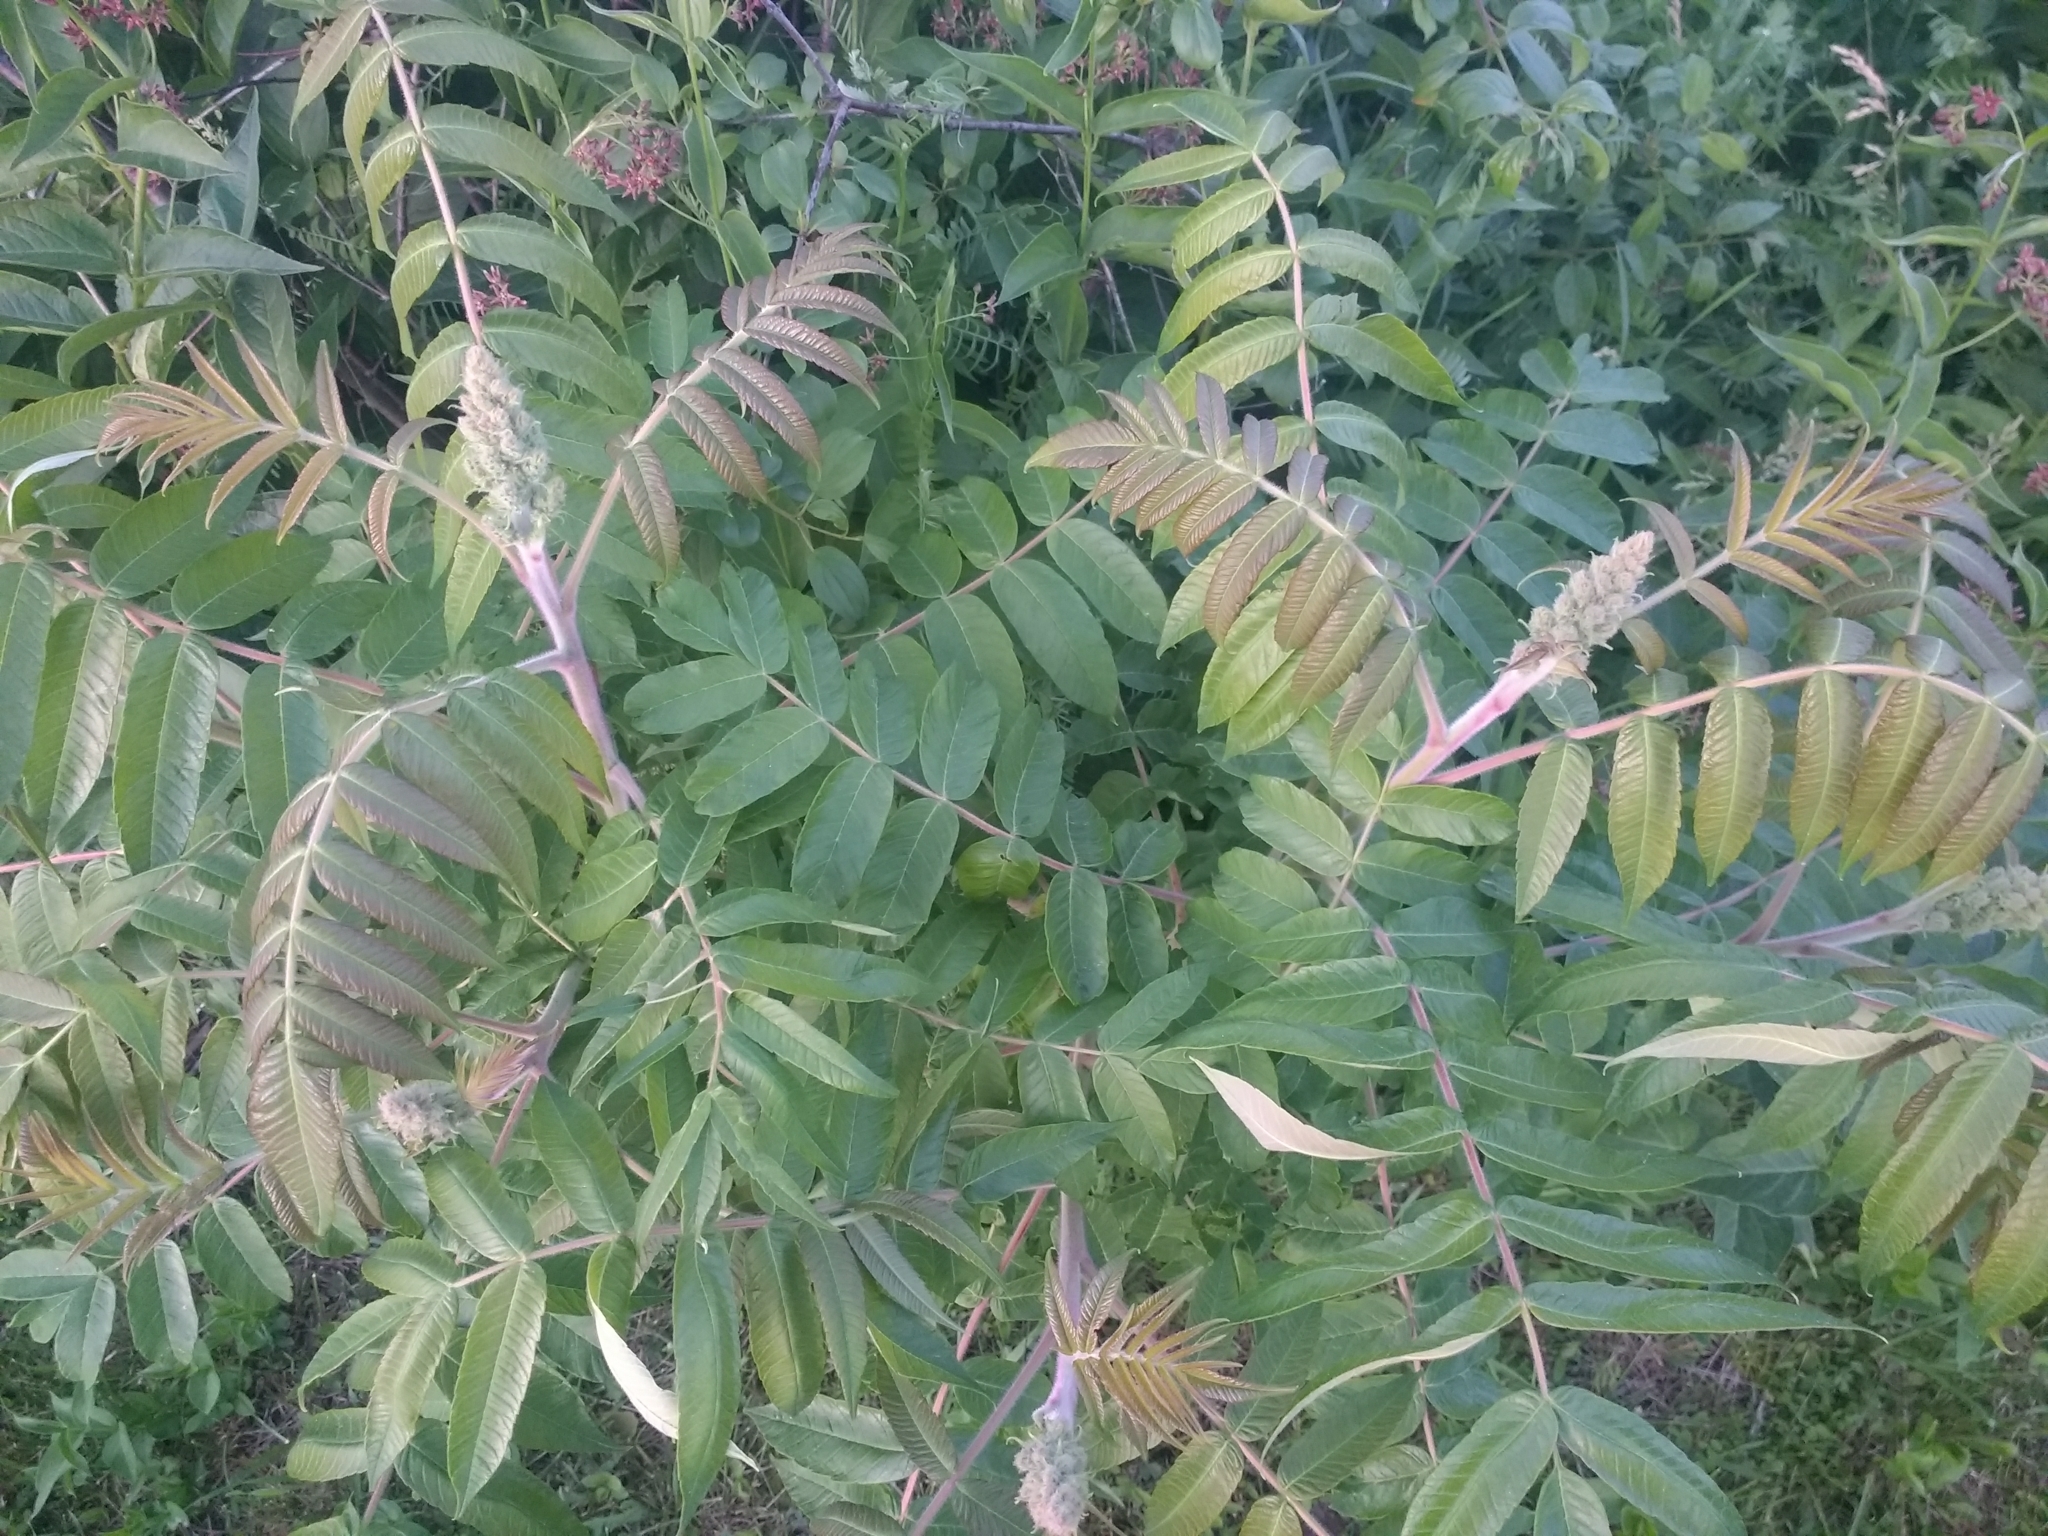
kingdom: Plantae
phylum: Tracheophyta
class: Magnoliopsida
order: Sapindales
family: Anacardiaceae
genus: Rhus
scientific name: Rhus typhina
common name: Staghorn sumac
